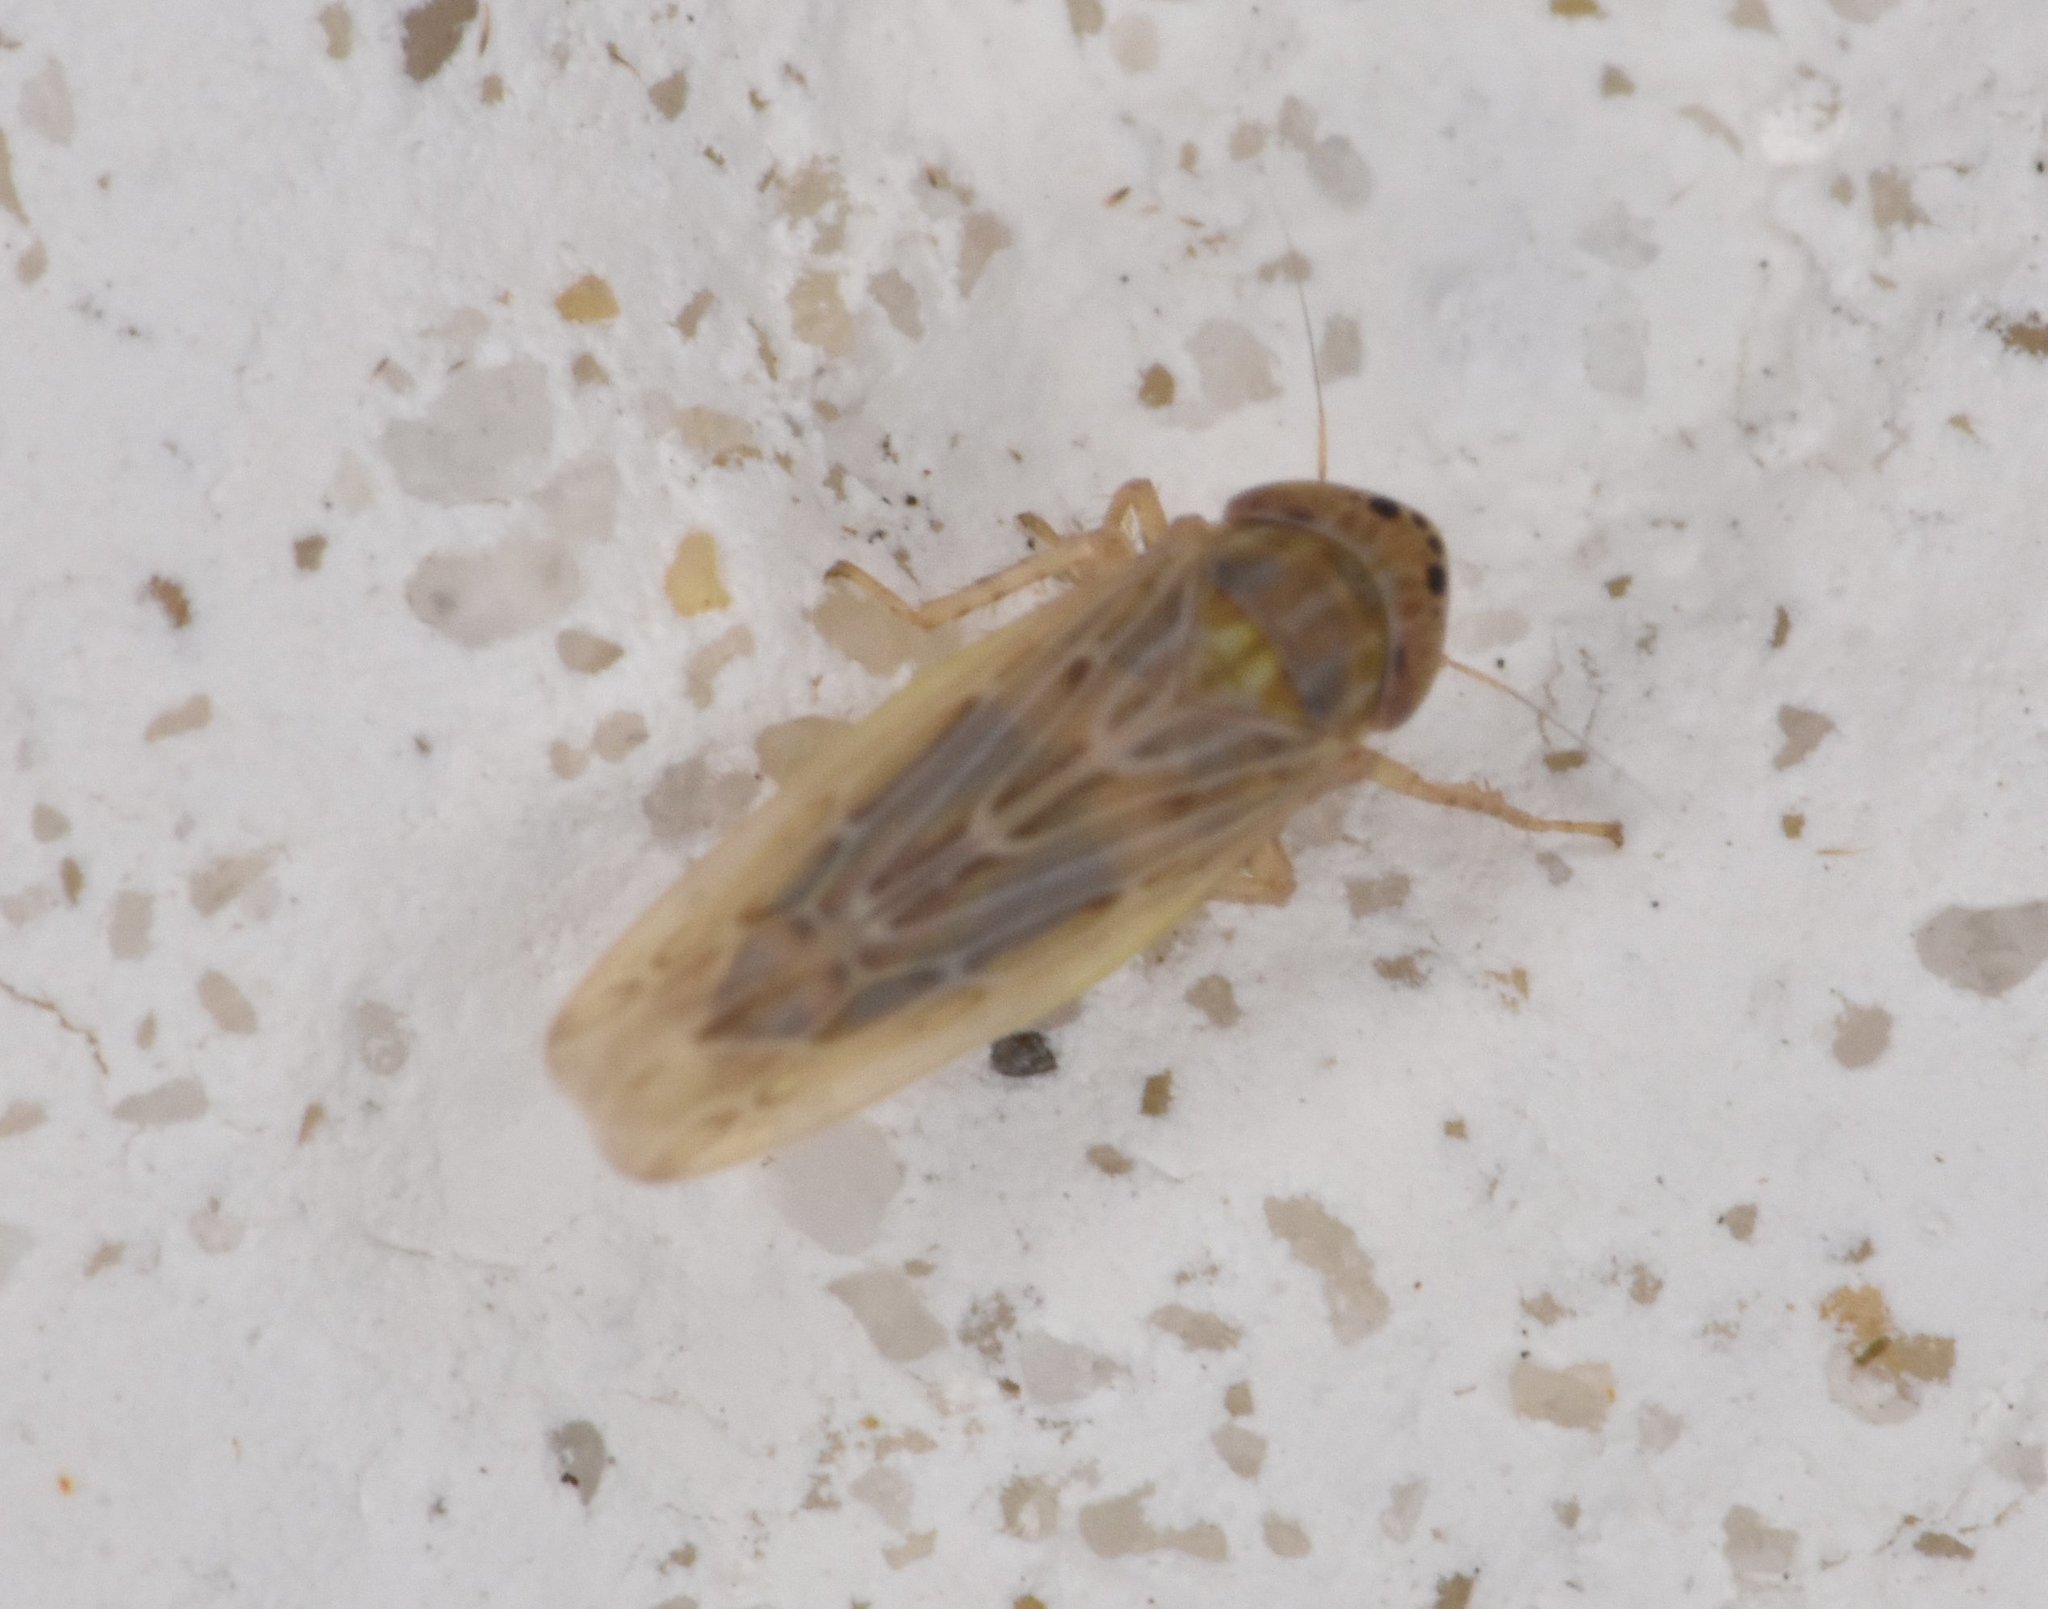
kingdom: Animalia
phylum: Arthropoda
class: Insecta
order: Hemiptera
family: Cicadellidae
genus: Graminella
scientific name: Graminella sonora
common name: Lesser lawn leafhopper
